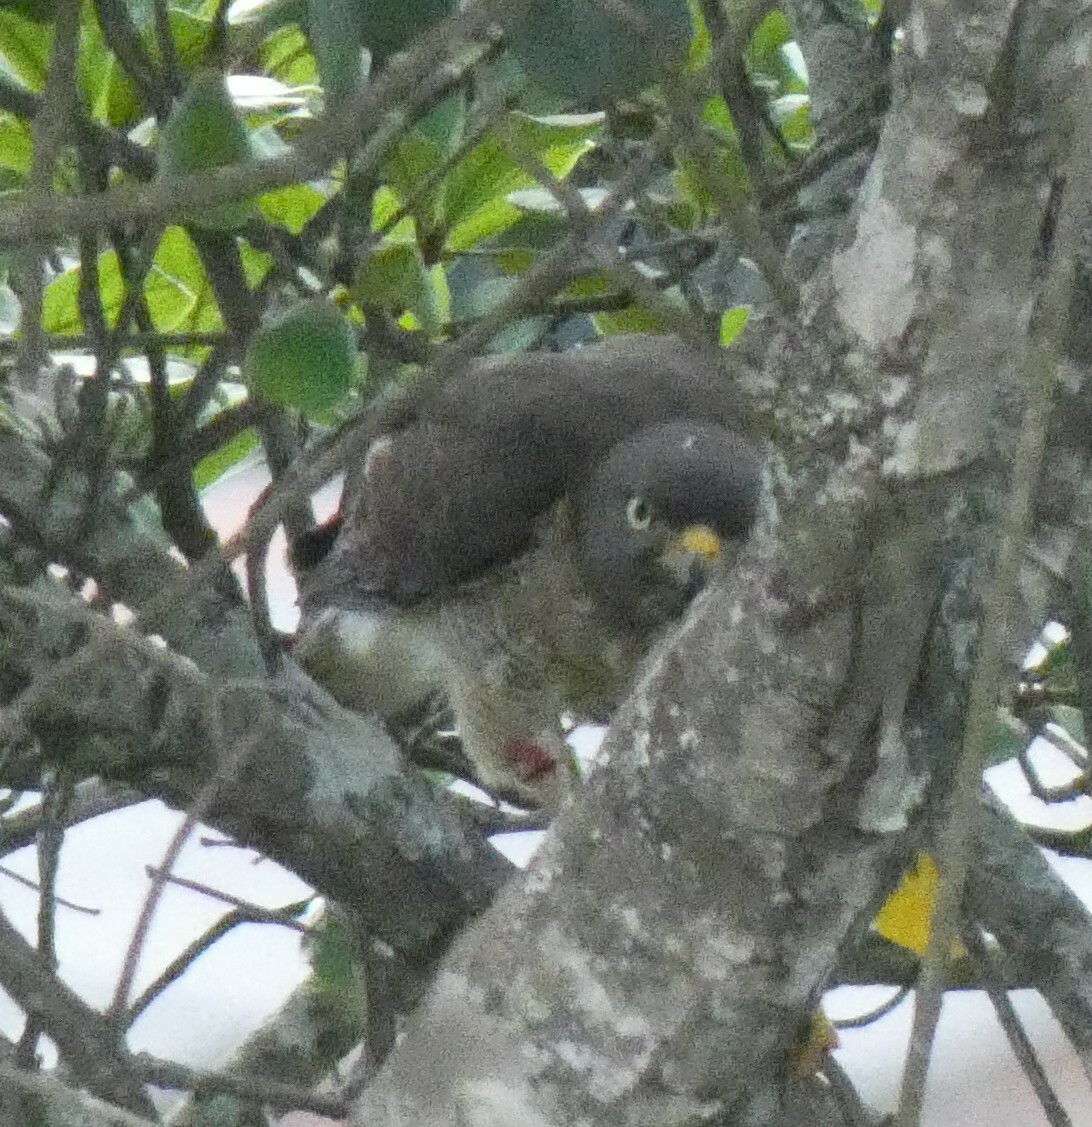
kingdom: Animalia
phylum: Chordata
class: Aves
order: Accipitriformes
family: Accipitridae
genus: Rupornis
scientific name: Rupornis magnirostris
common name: Roadside hawk
